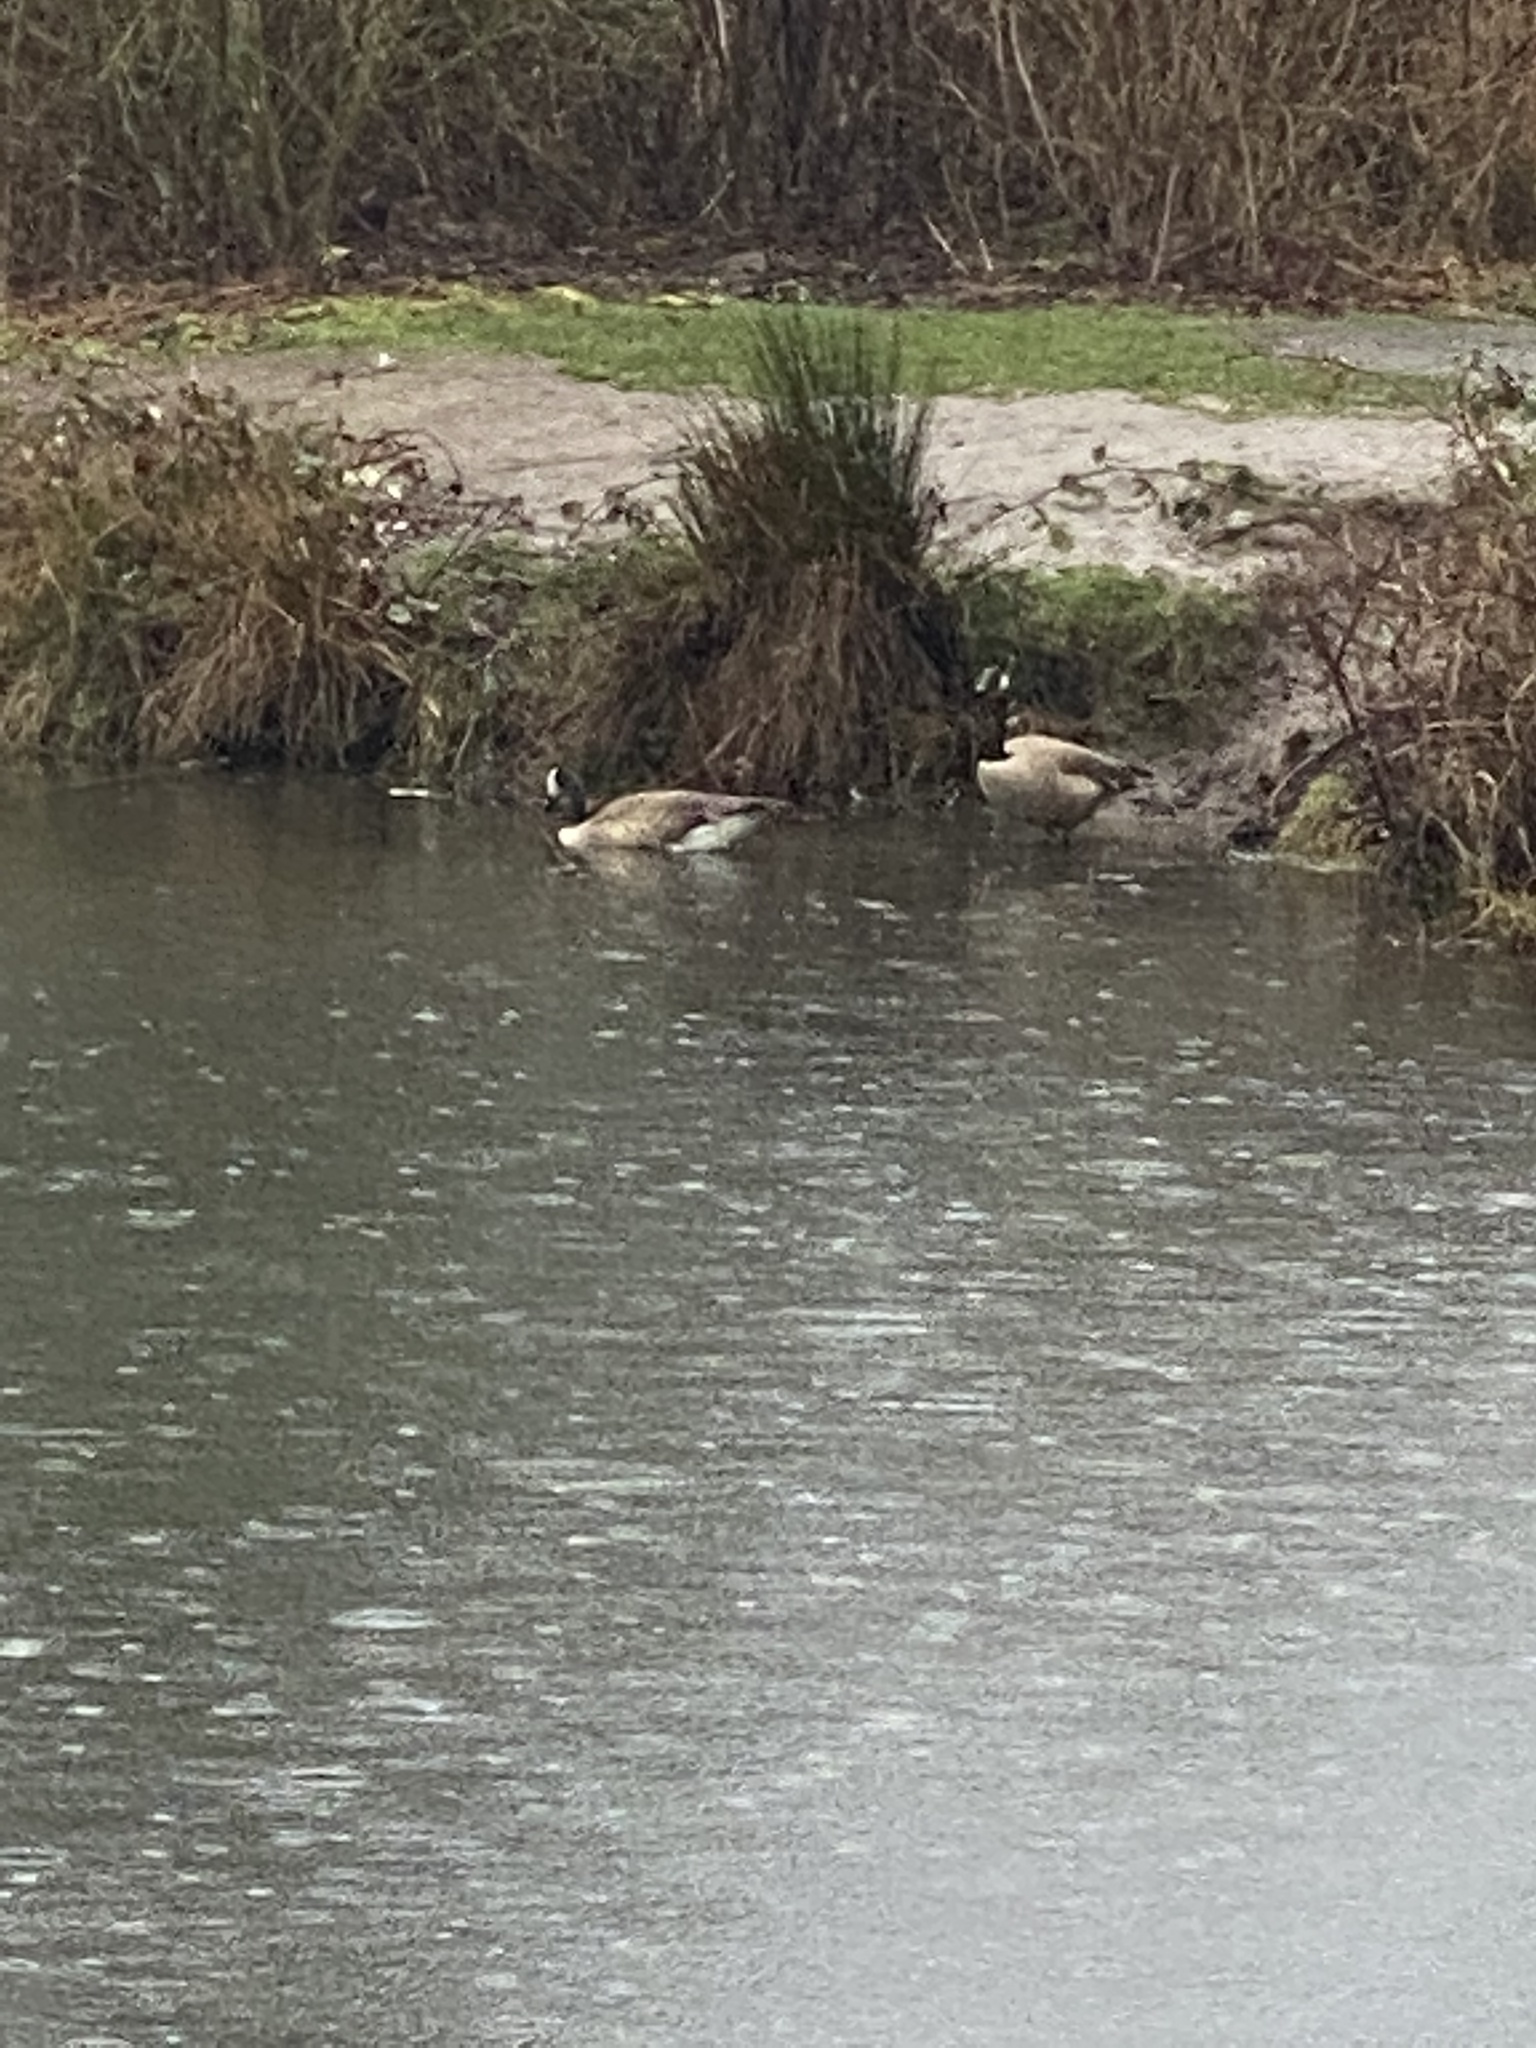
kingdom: Animalia
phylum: Chordata
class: Aves
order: Anseriformes
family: Anatidae
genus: Branta
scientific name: Branta canadensis
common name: Canada goose
